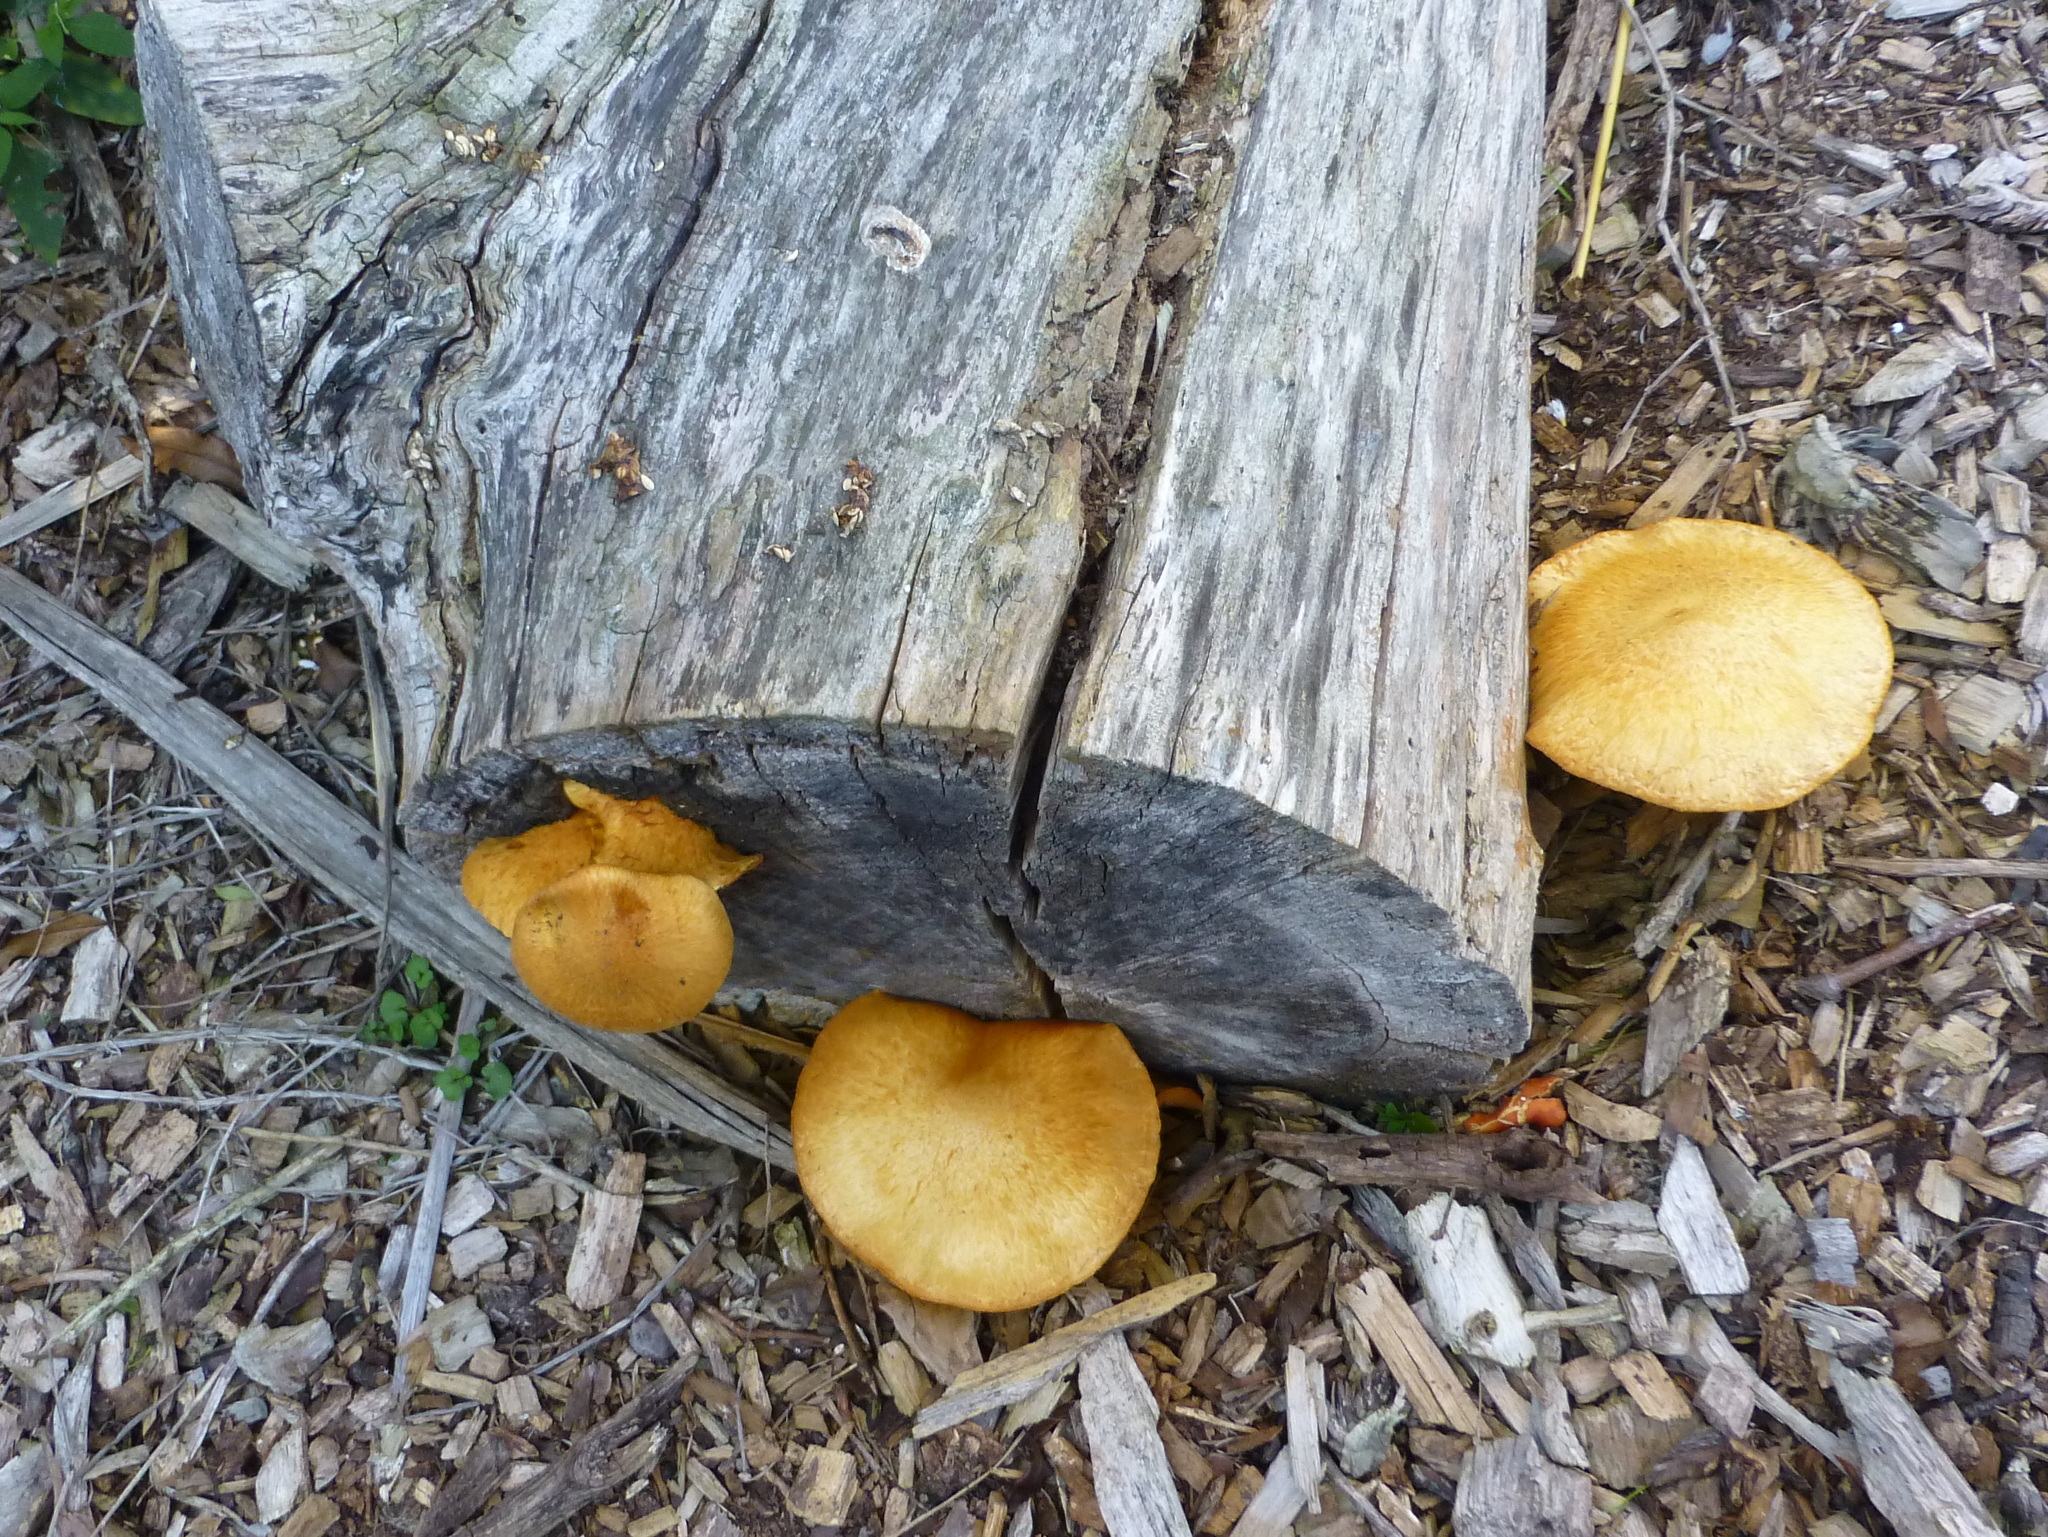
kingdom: Fungi
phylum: Basidiomycota
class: Agaricomycetes
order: Agaricales
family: Hymenogastraceae
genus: Gymnopilus
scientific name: Gymnopilus junonius
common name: Spectacular rustgill
